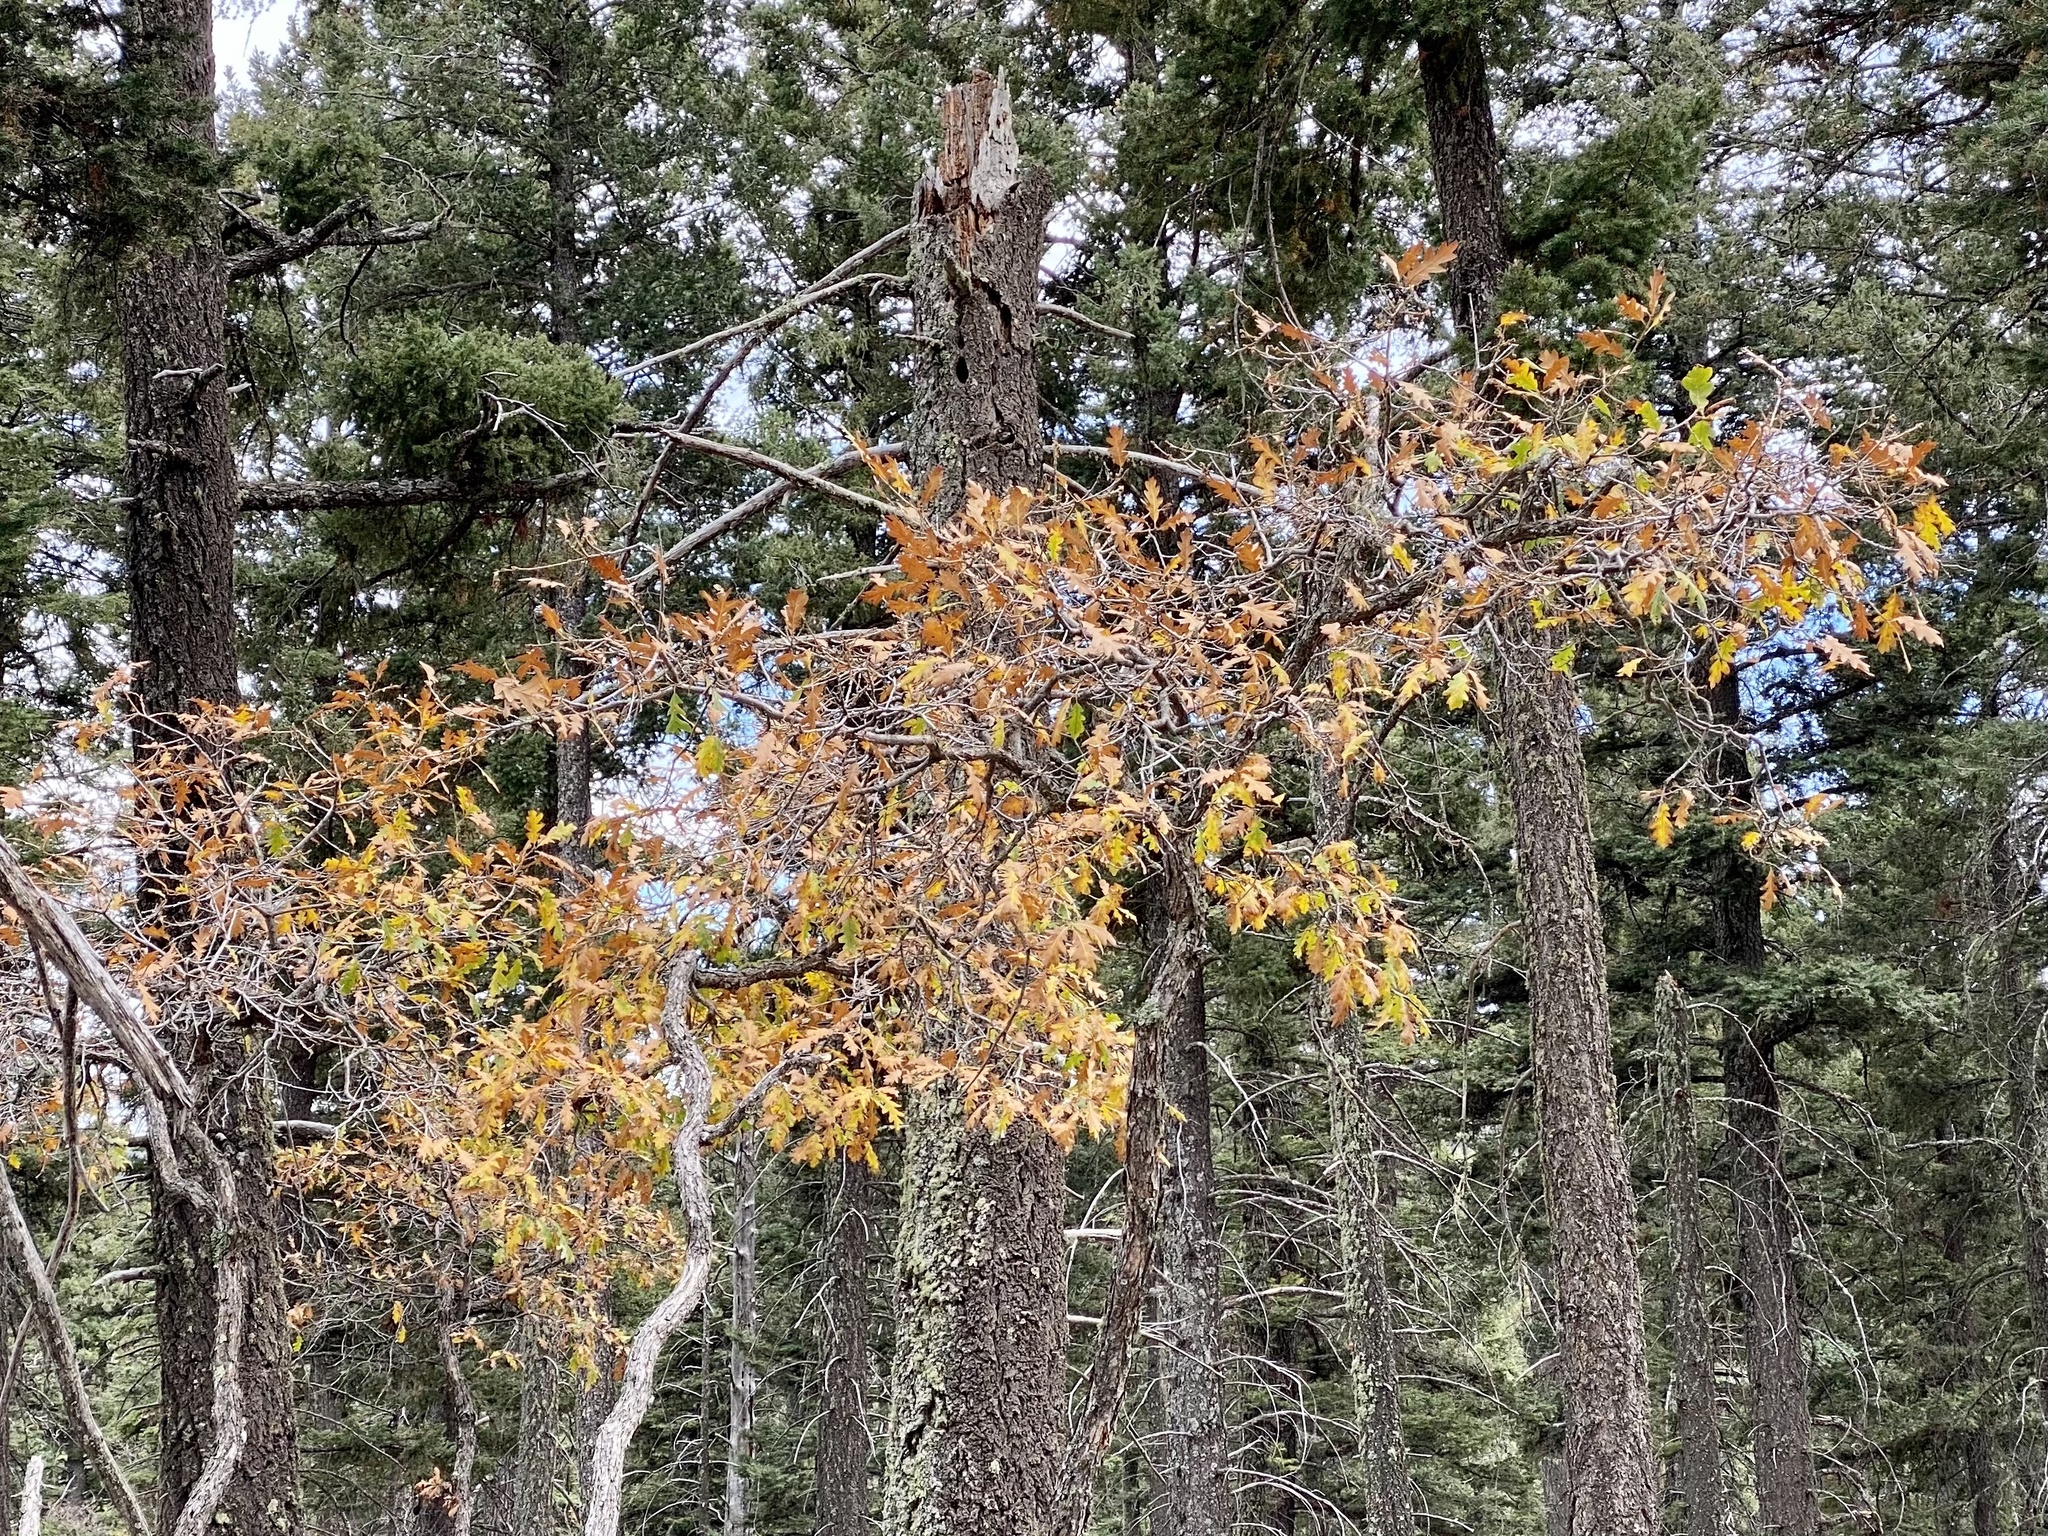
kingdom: Plantae
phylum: Tracheophyta
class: Magnoliopsida
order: Fagales
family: Fagaceae
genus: Quercus
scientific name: Quercus gambelii
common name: Gambel oak
